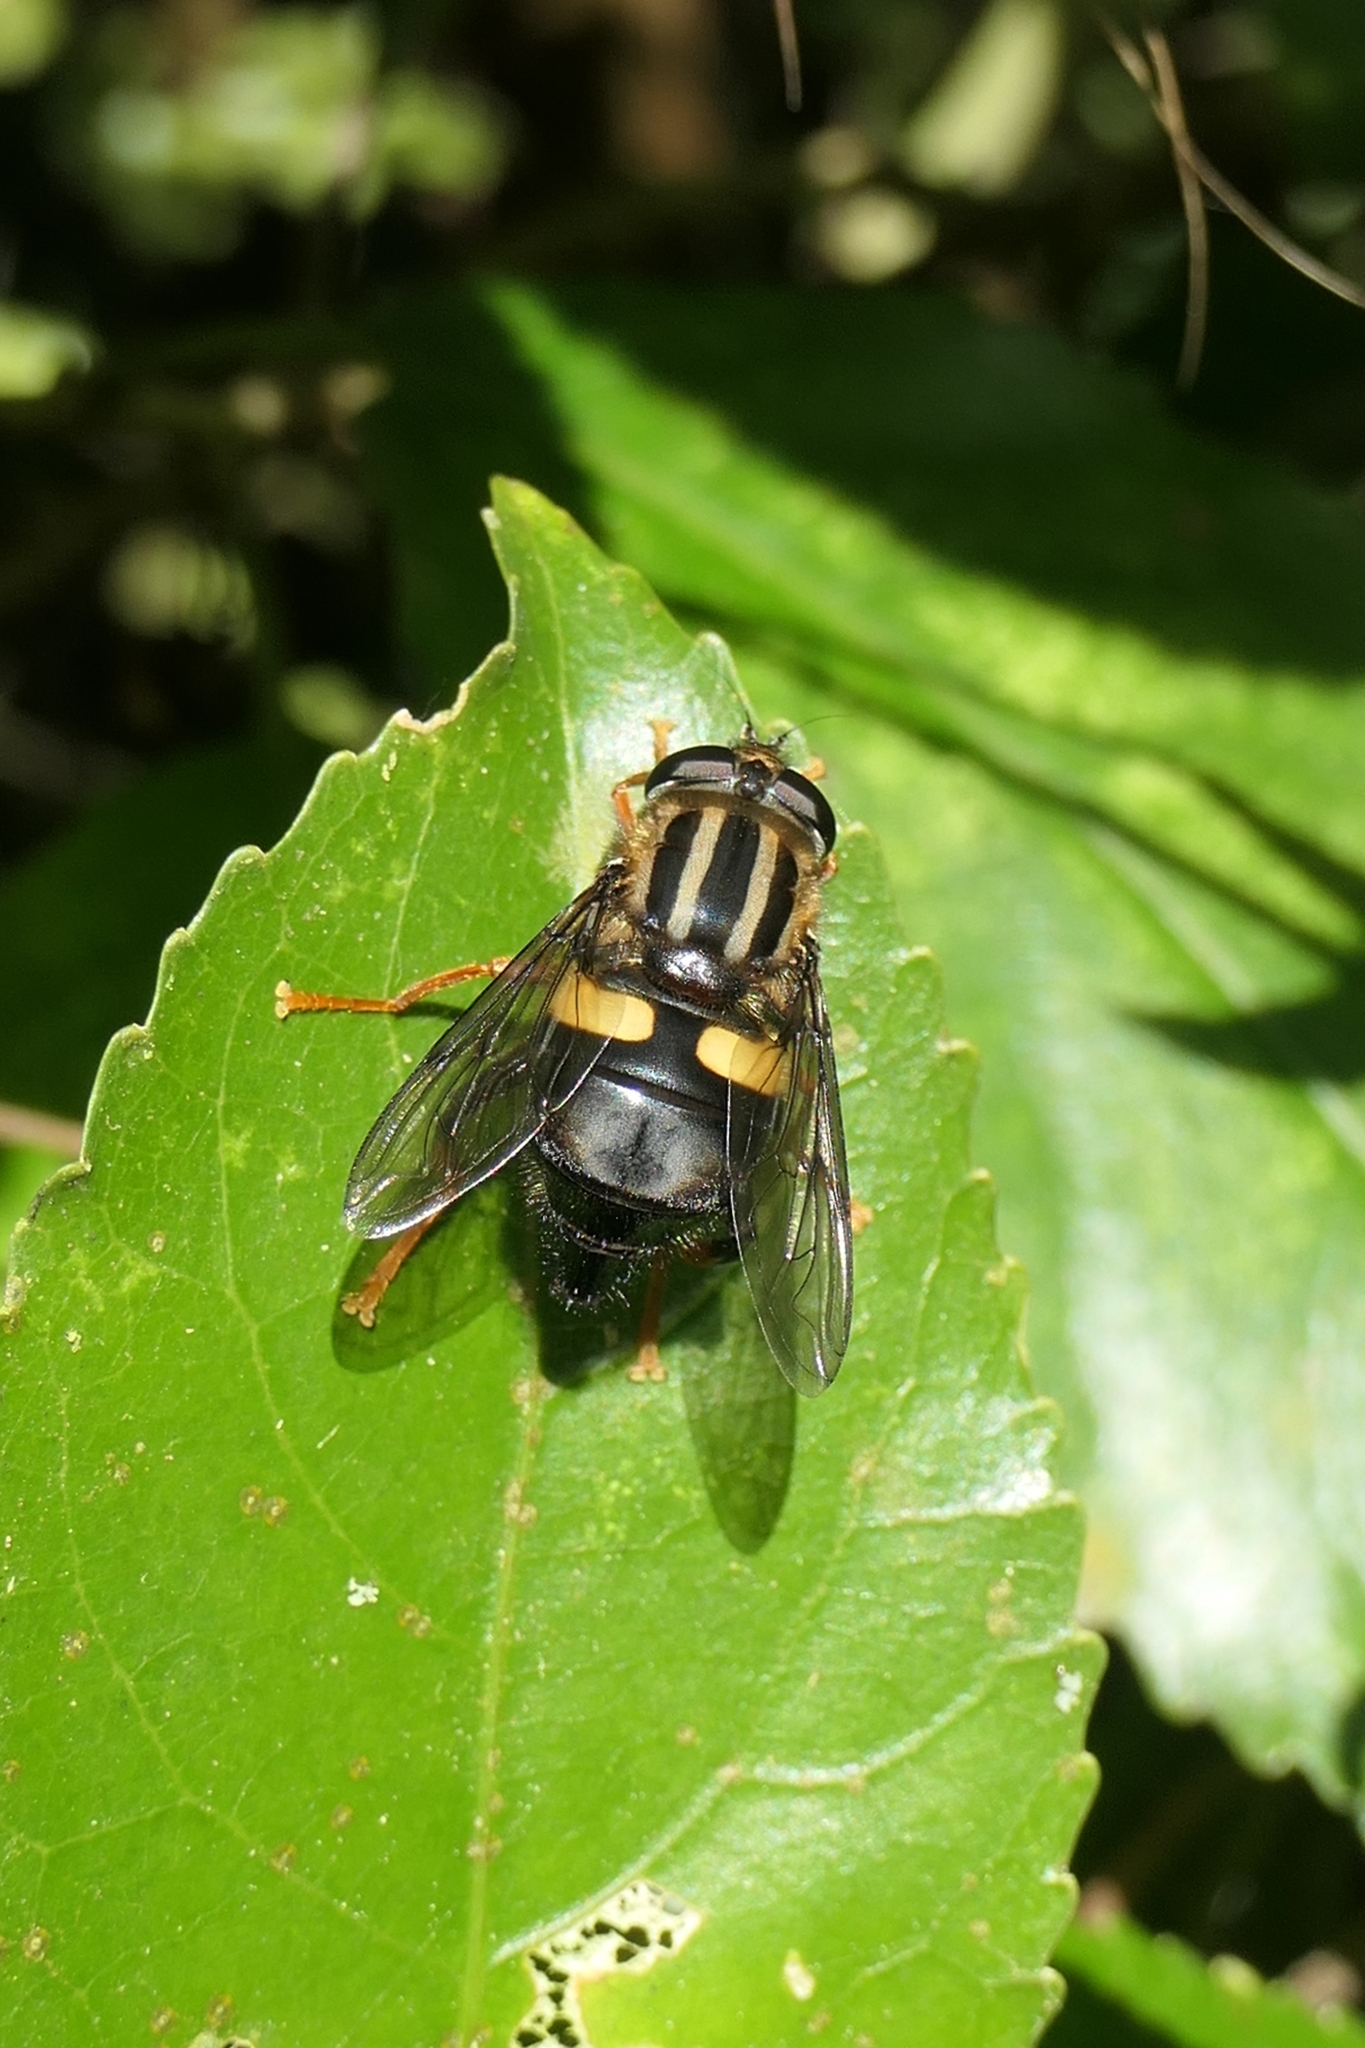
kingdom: Animalia
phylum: Arthropoda
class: Insecta
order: Diptera
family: Syrphidae
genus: Helophilus
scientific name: Helophilus seelandicus
